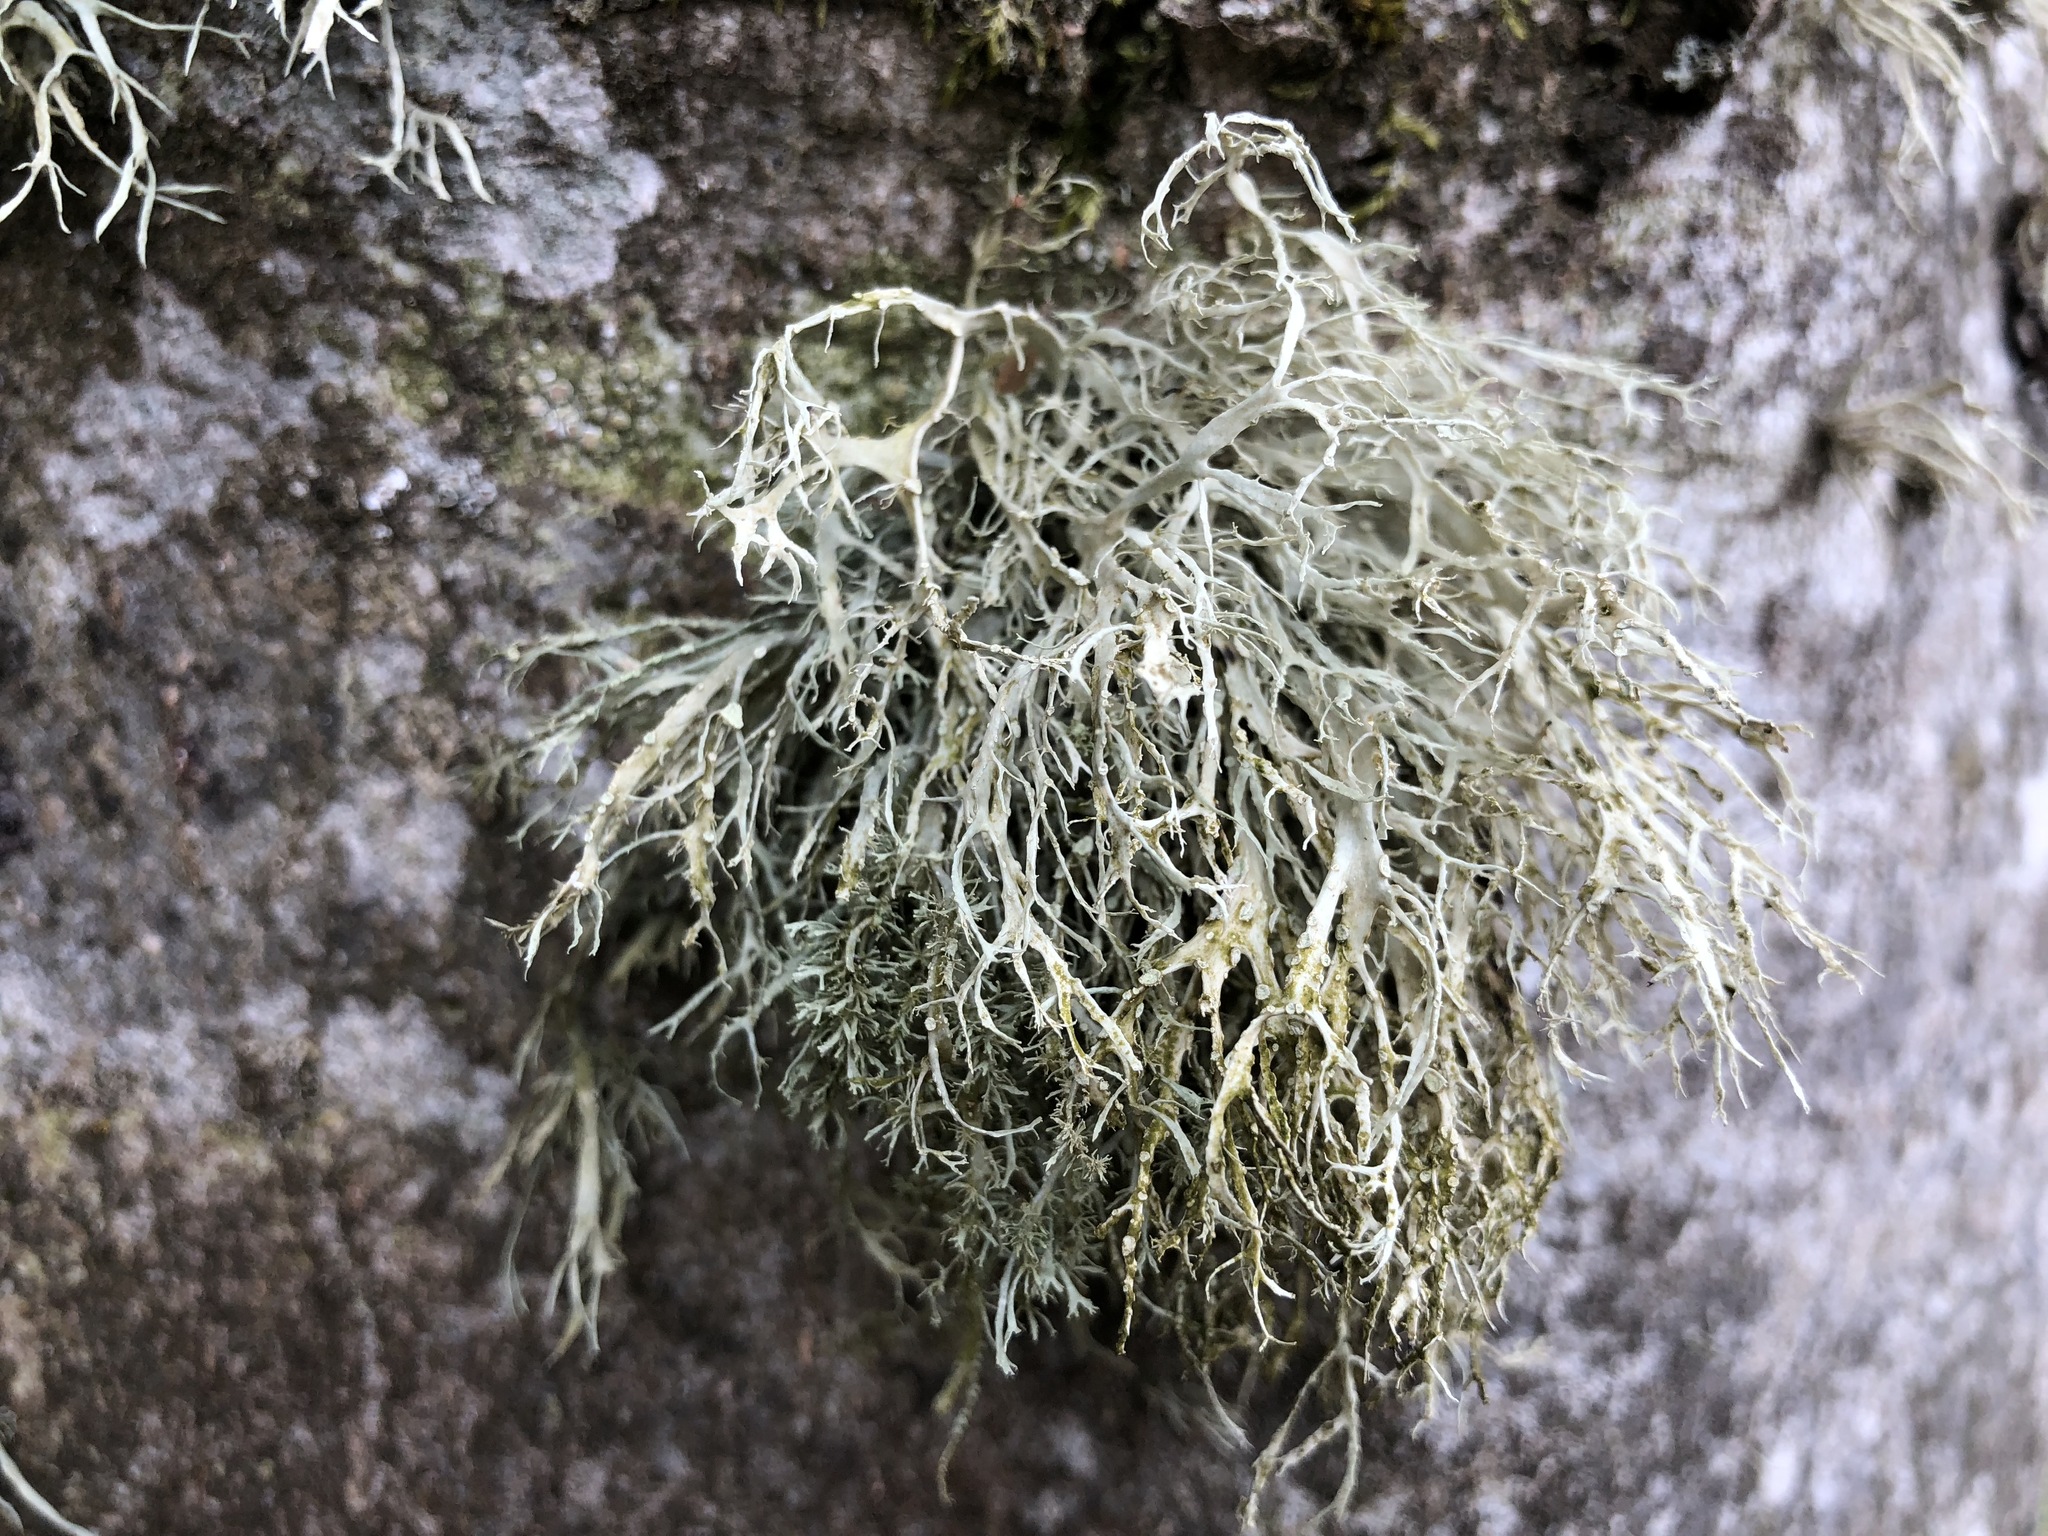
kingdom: Fungi
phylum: Ascomycota
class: Lecanoromycetes
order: Lecanorales
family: Ramalinaceae
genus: Ramalina
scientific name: Ramalina farinacea
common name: Farinose cartilage lichen
